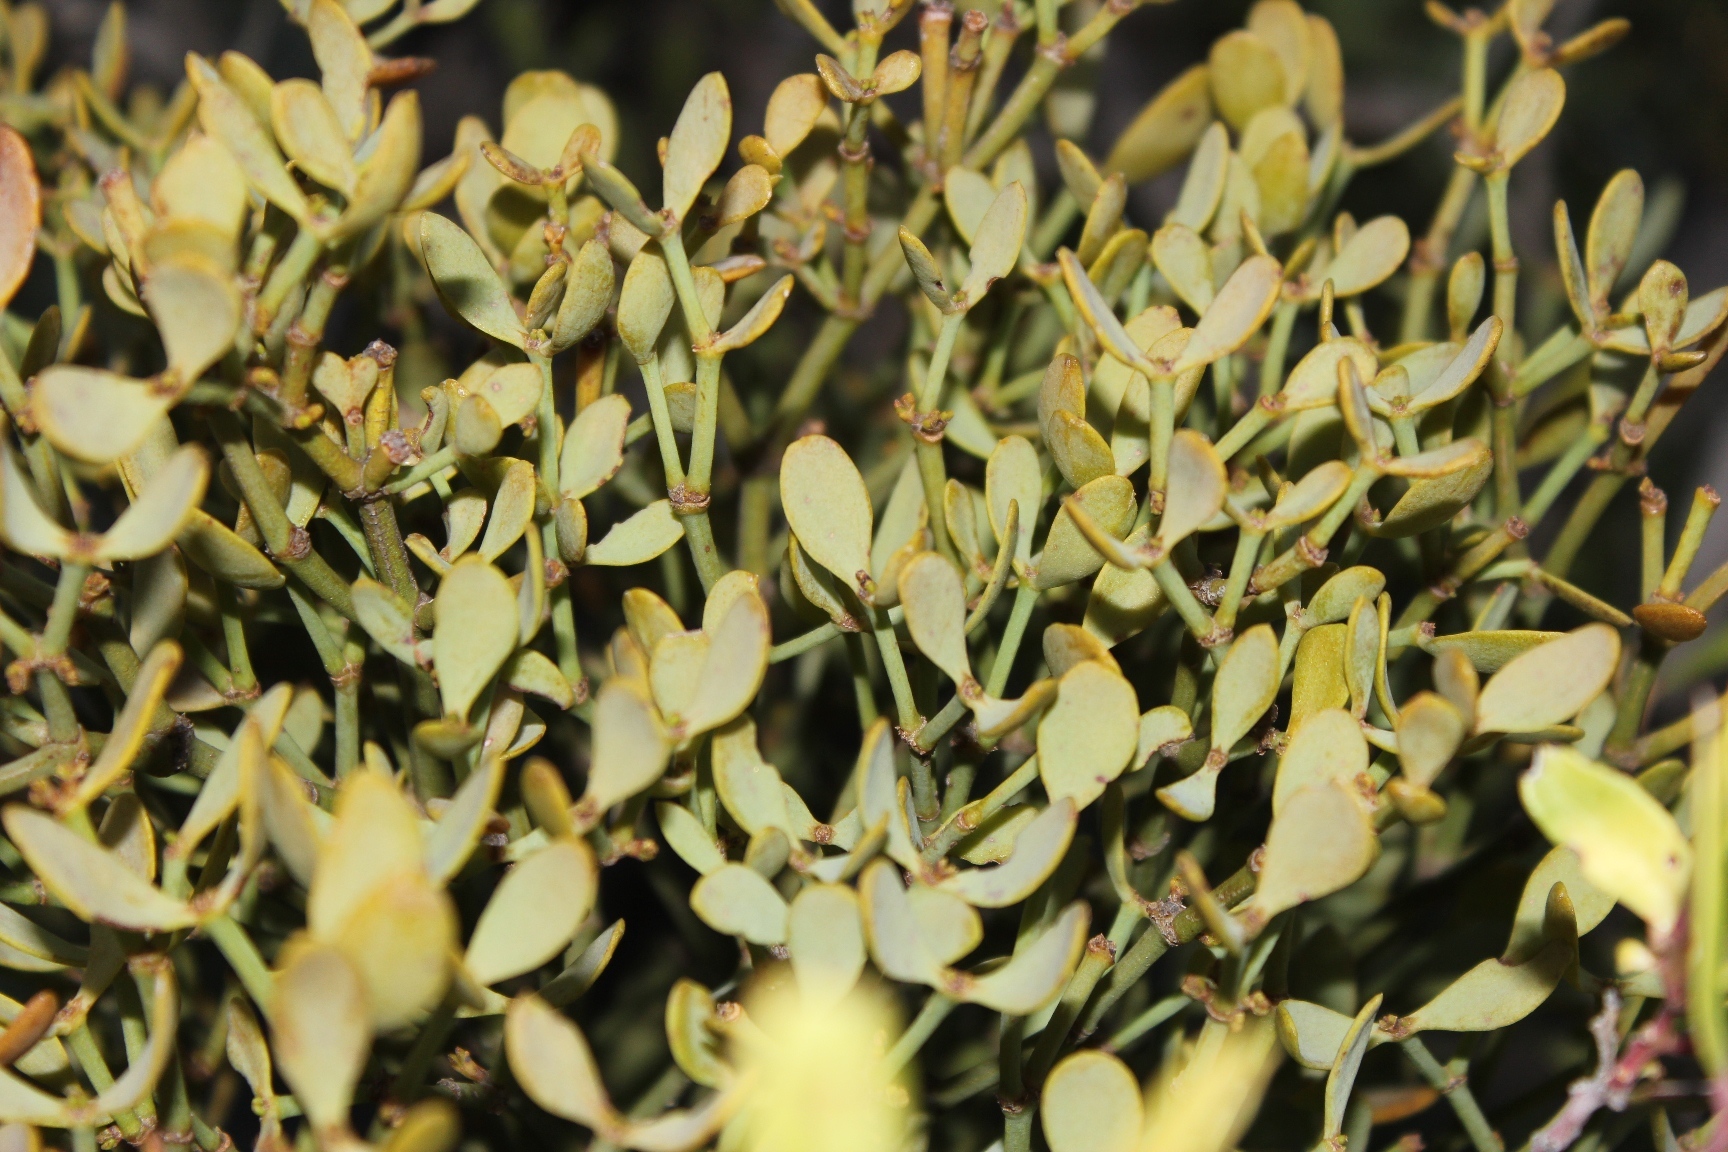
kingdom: Plantae
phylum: Tracheophyta
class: Magnoliopsida
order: Santalales
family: Viscaceae
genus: Viscum
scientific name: Viscum rotundifolium
